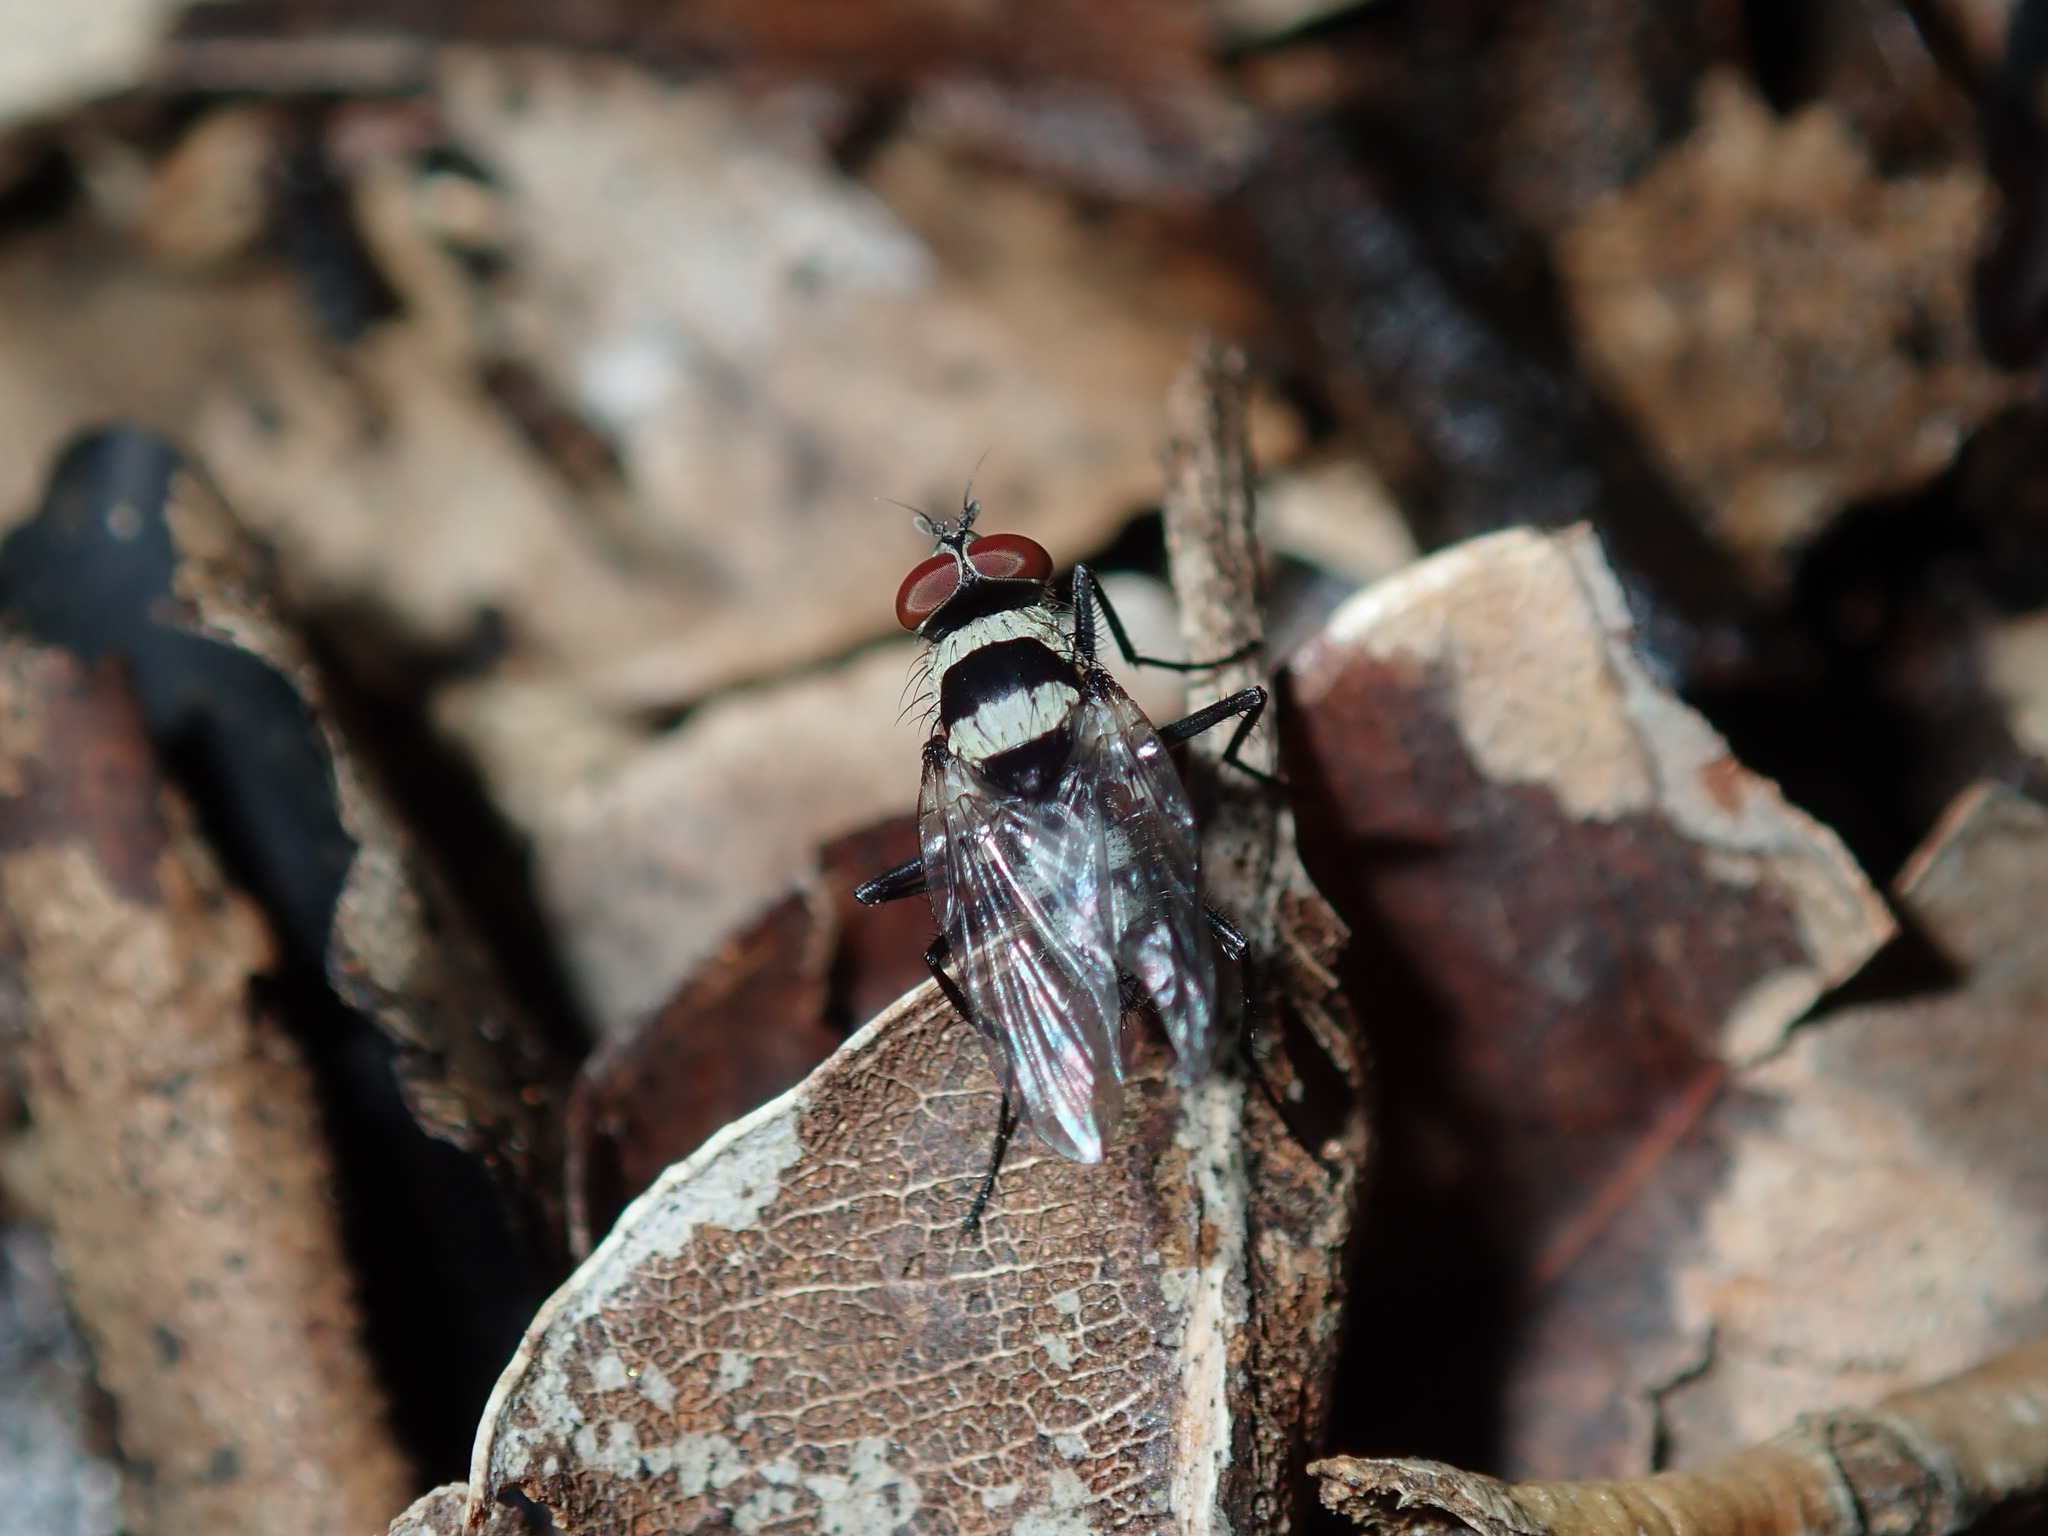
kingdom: Animalia
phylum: Arthropoda
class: Insecta
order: Diptera
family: Anthomyiidae
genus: Anthomyia
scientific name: Anthomyia medialis
